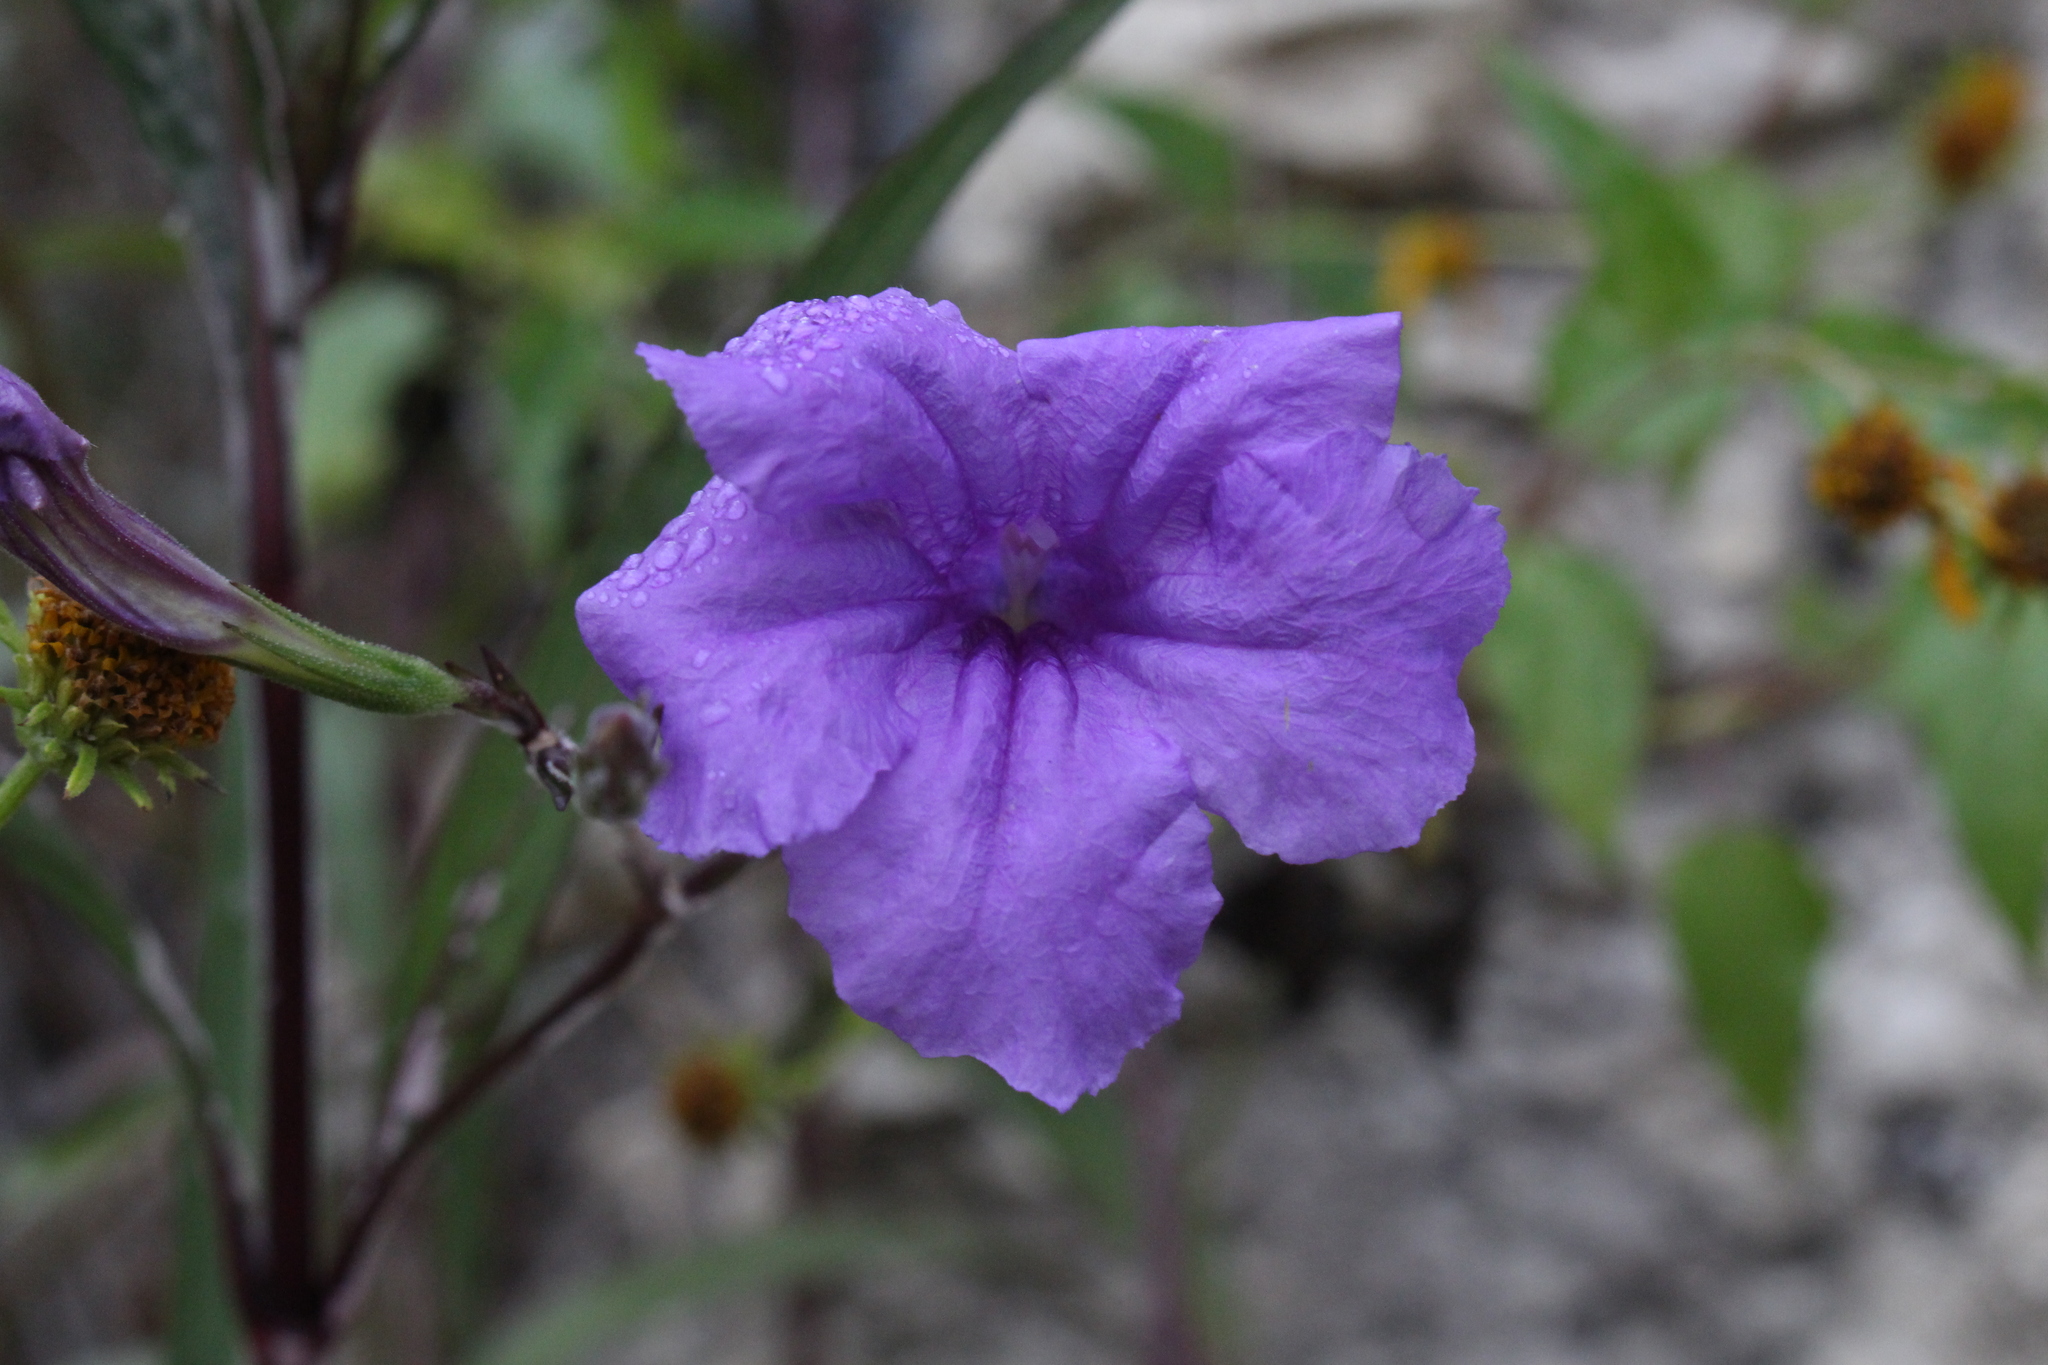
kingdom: Plantae
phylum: Tracheophyta
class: Magnoliopsida
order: Lamiales
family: Acanthaceae
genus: Ruellia
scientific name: Ruellia simplex
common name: Softseed wild petunia
